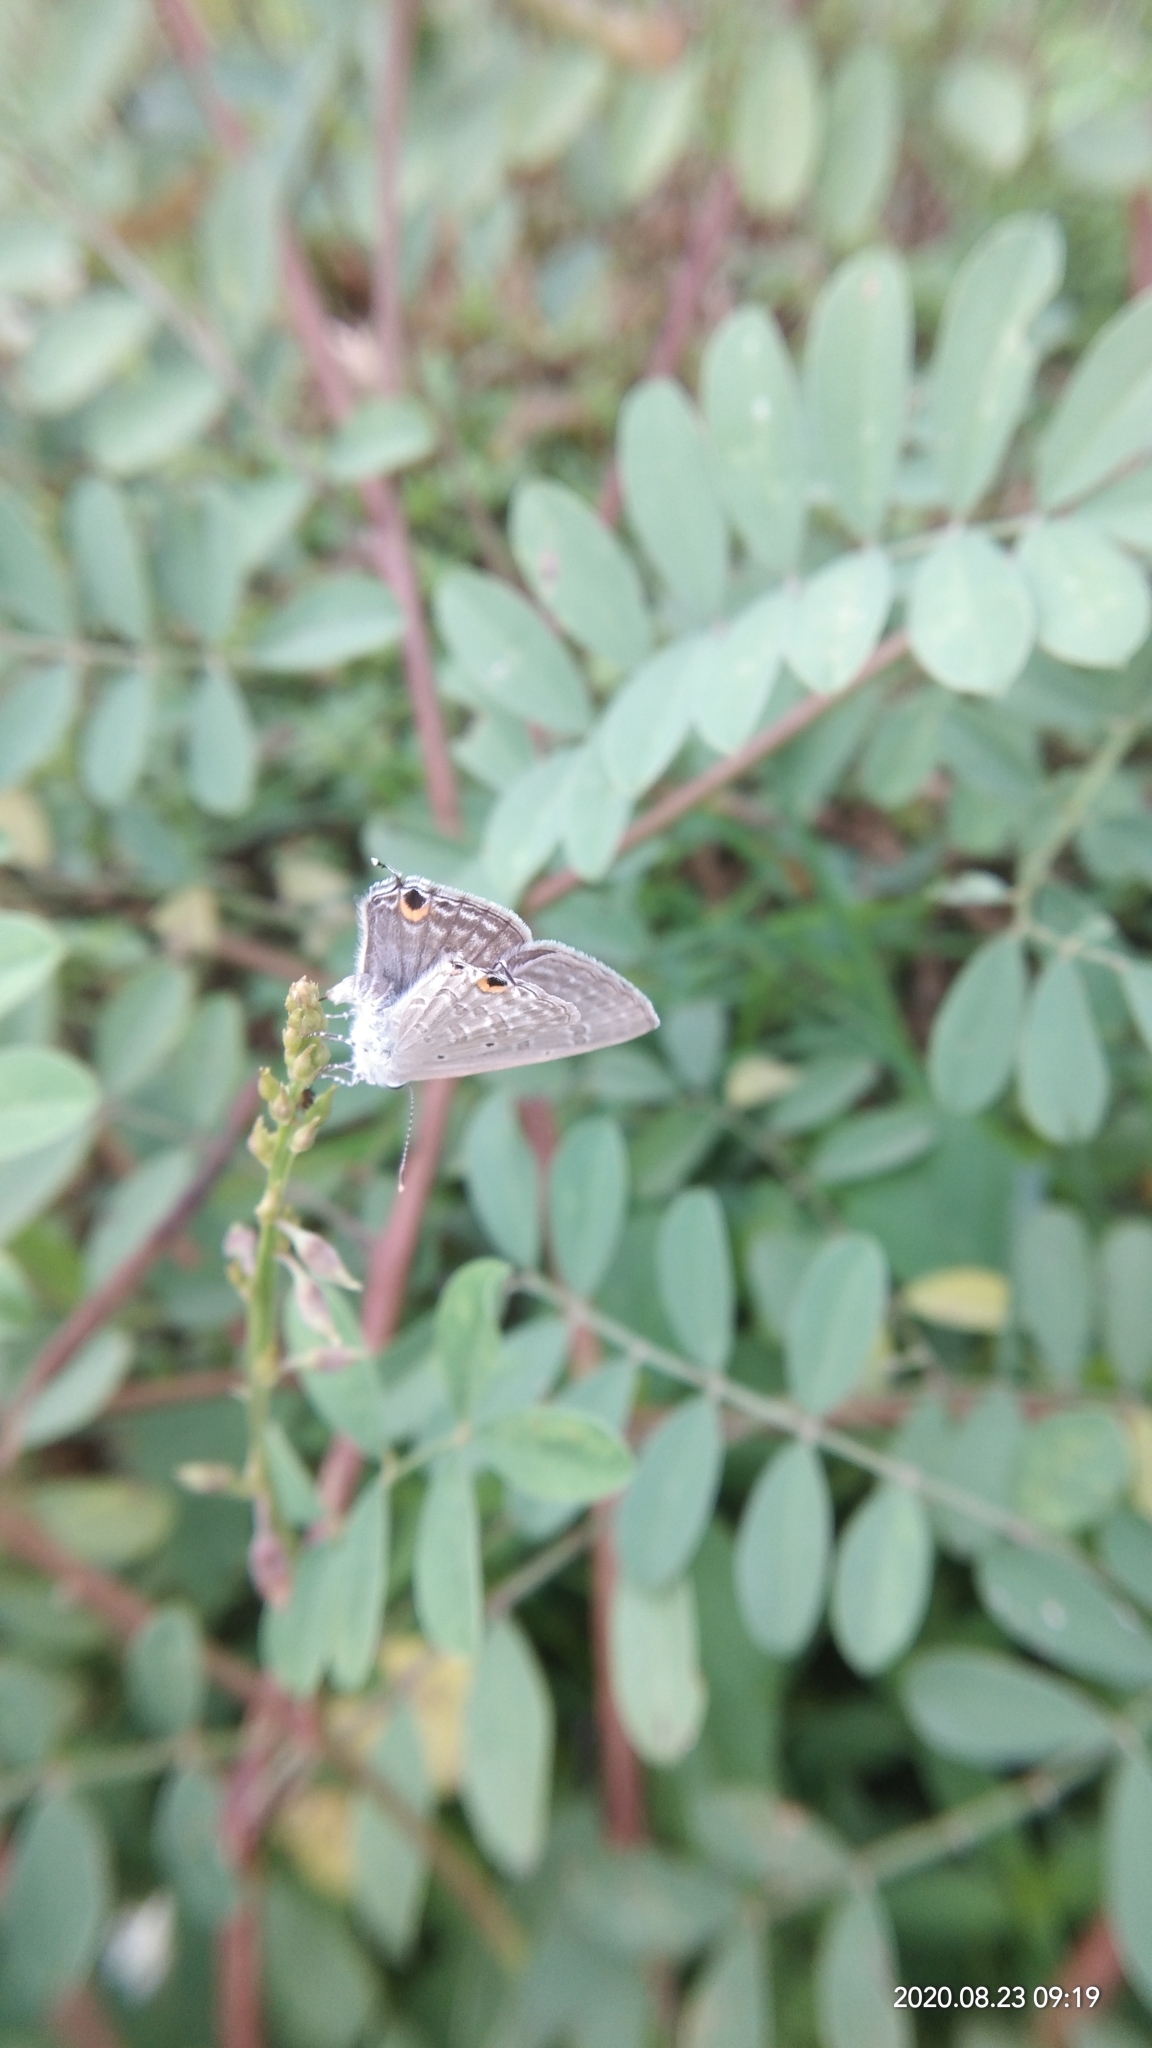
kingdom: Animalia
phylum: Arthropoda
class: Insecta
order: Lepidoptera
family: Lycaenidae
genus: Catochrysops
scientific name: Catochrysops strabo
